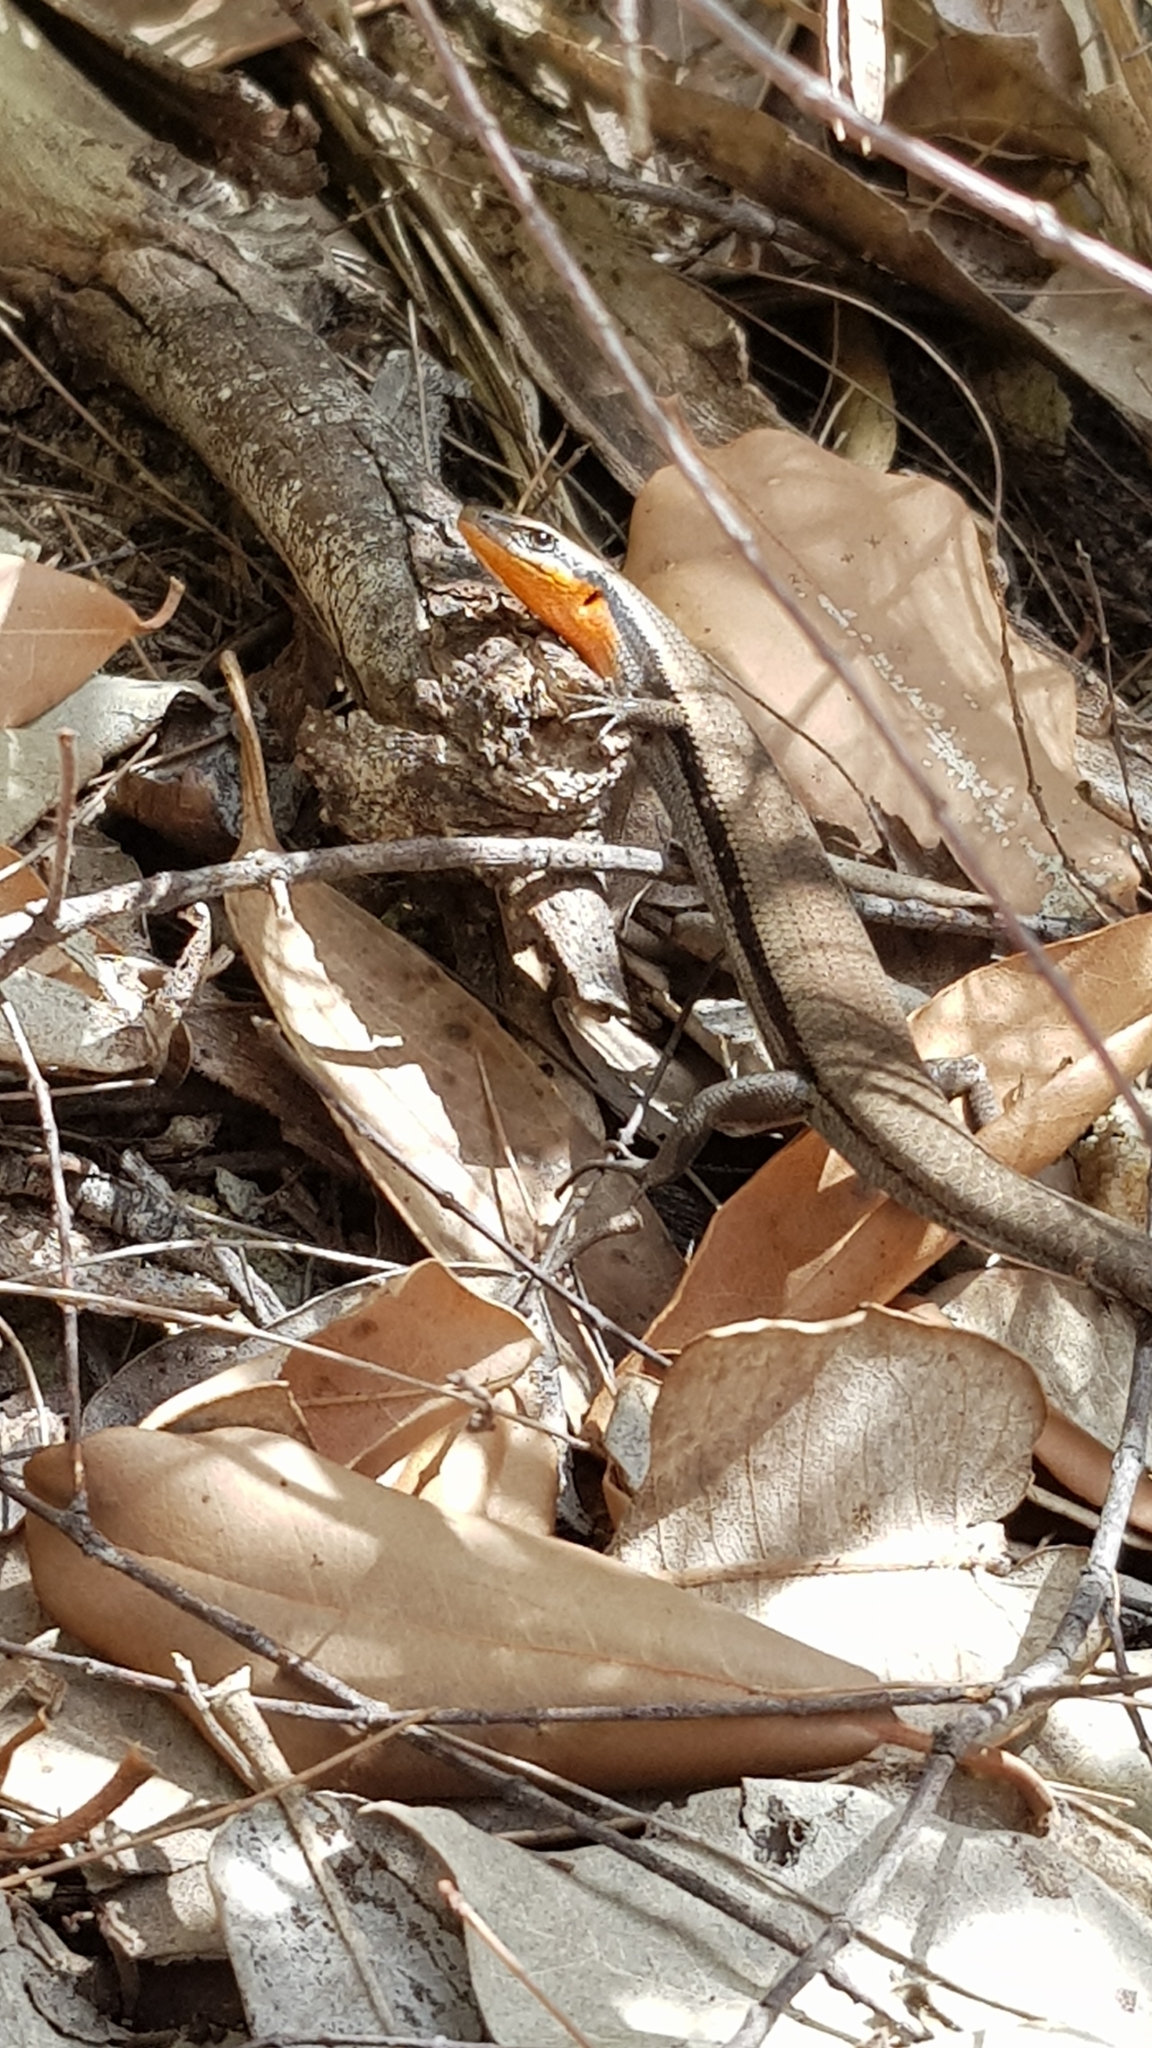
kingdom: Animalia
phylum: Chordata
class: Squamata
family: Scincidae
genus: Acritoscincus
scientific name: Acritoscincus platynotus
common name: Red-throated cool-skink
